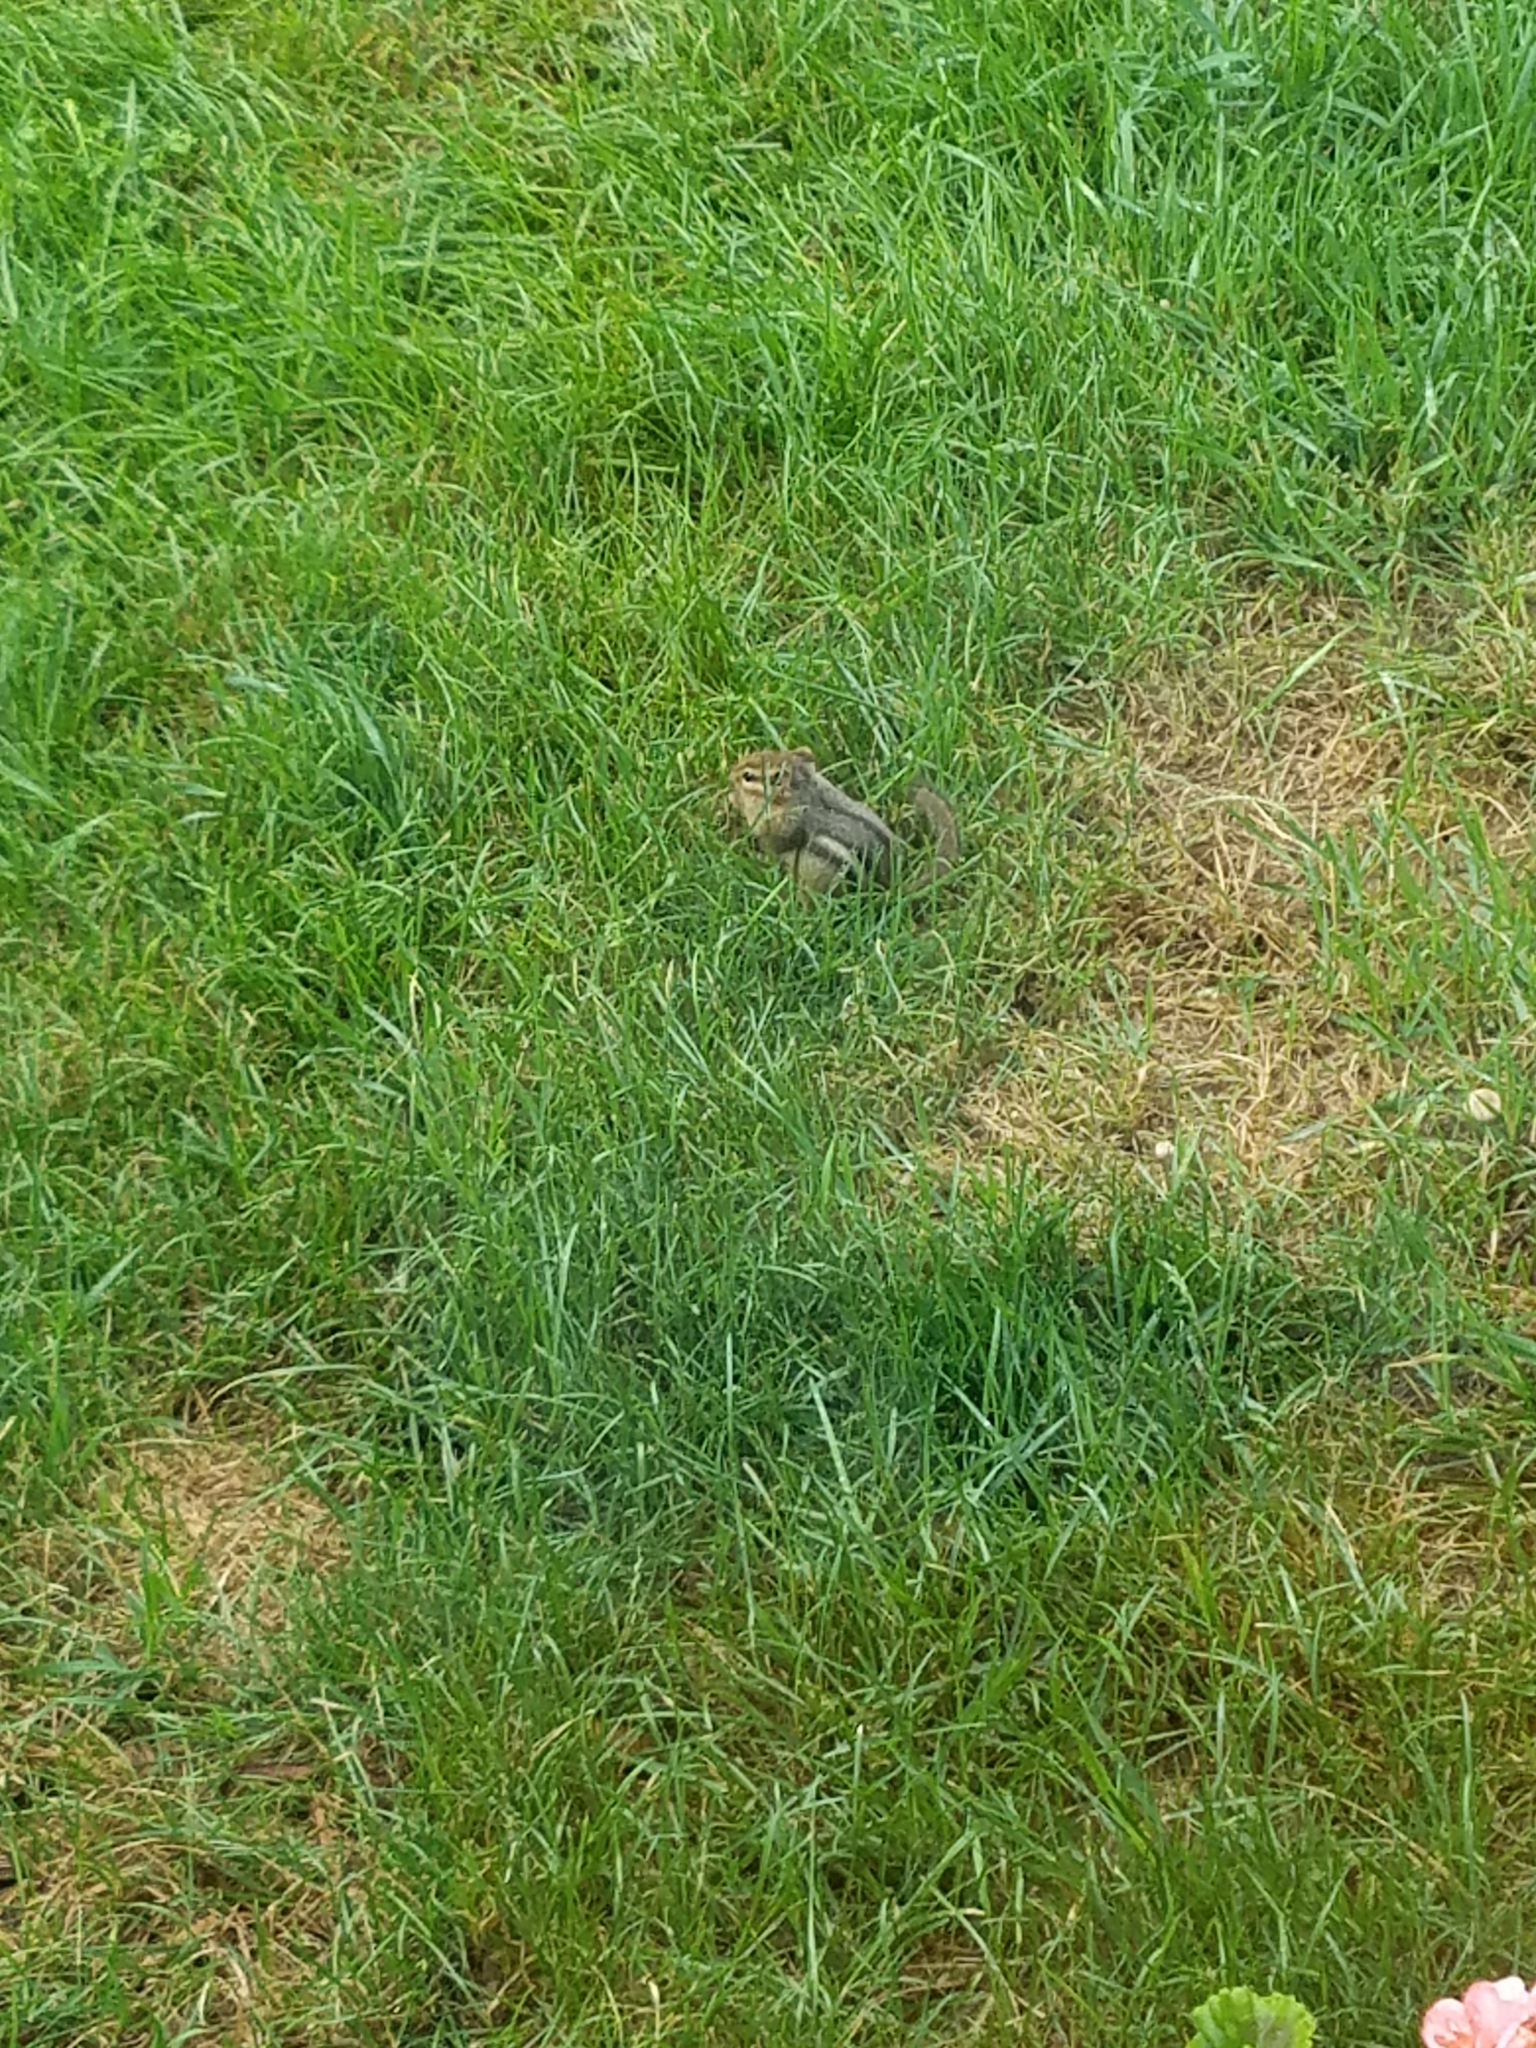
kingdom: Animalia
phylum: Chordata
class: Mammalia
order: Rodentia
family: Sciuridae
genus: Tamias
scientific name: Tamias striatus
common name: Eastern chipmunk
